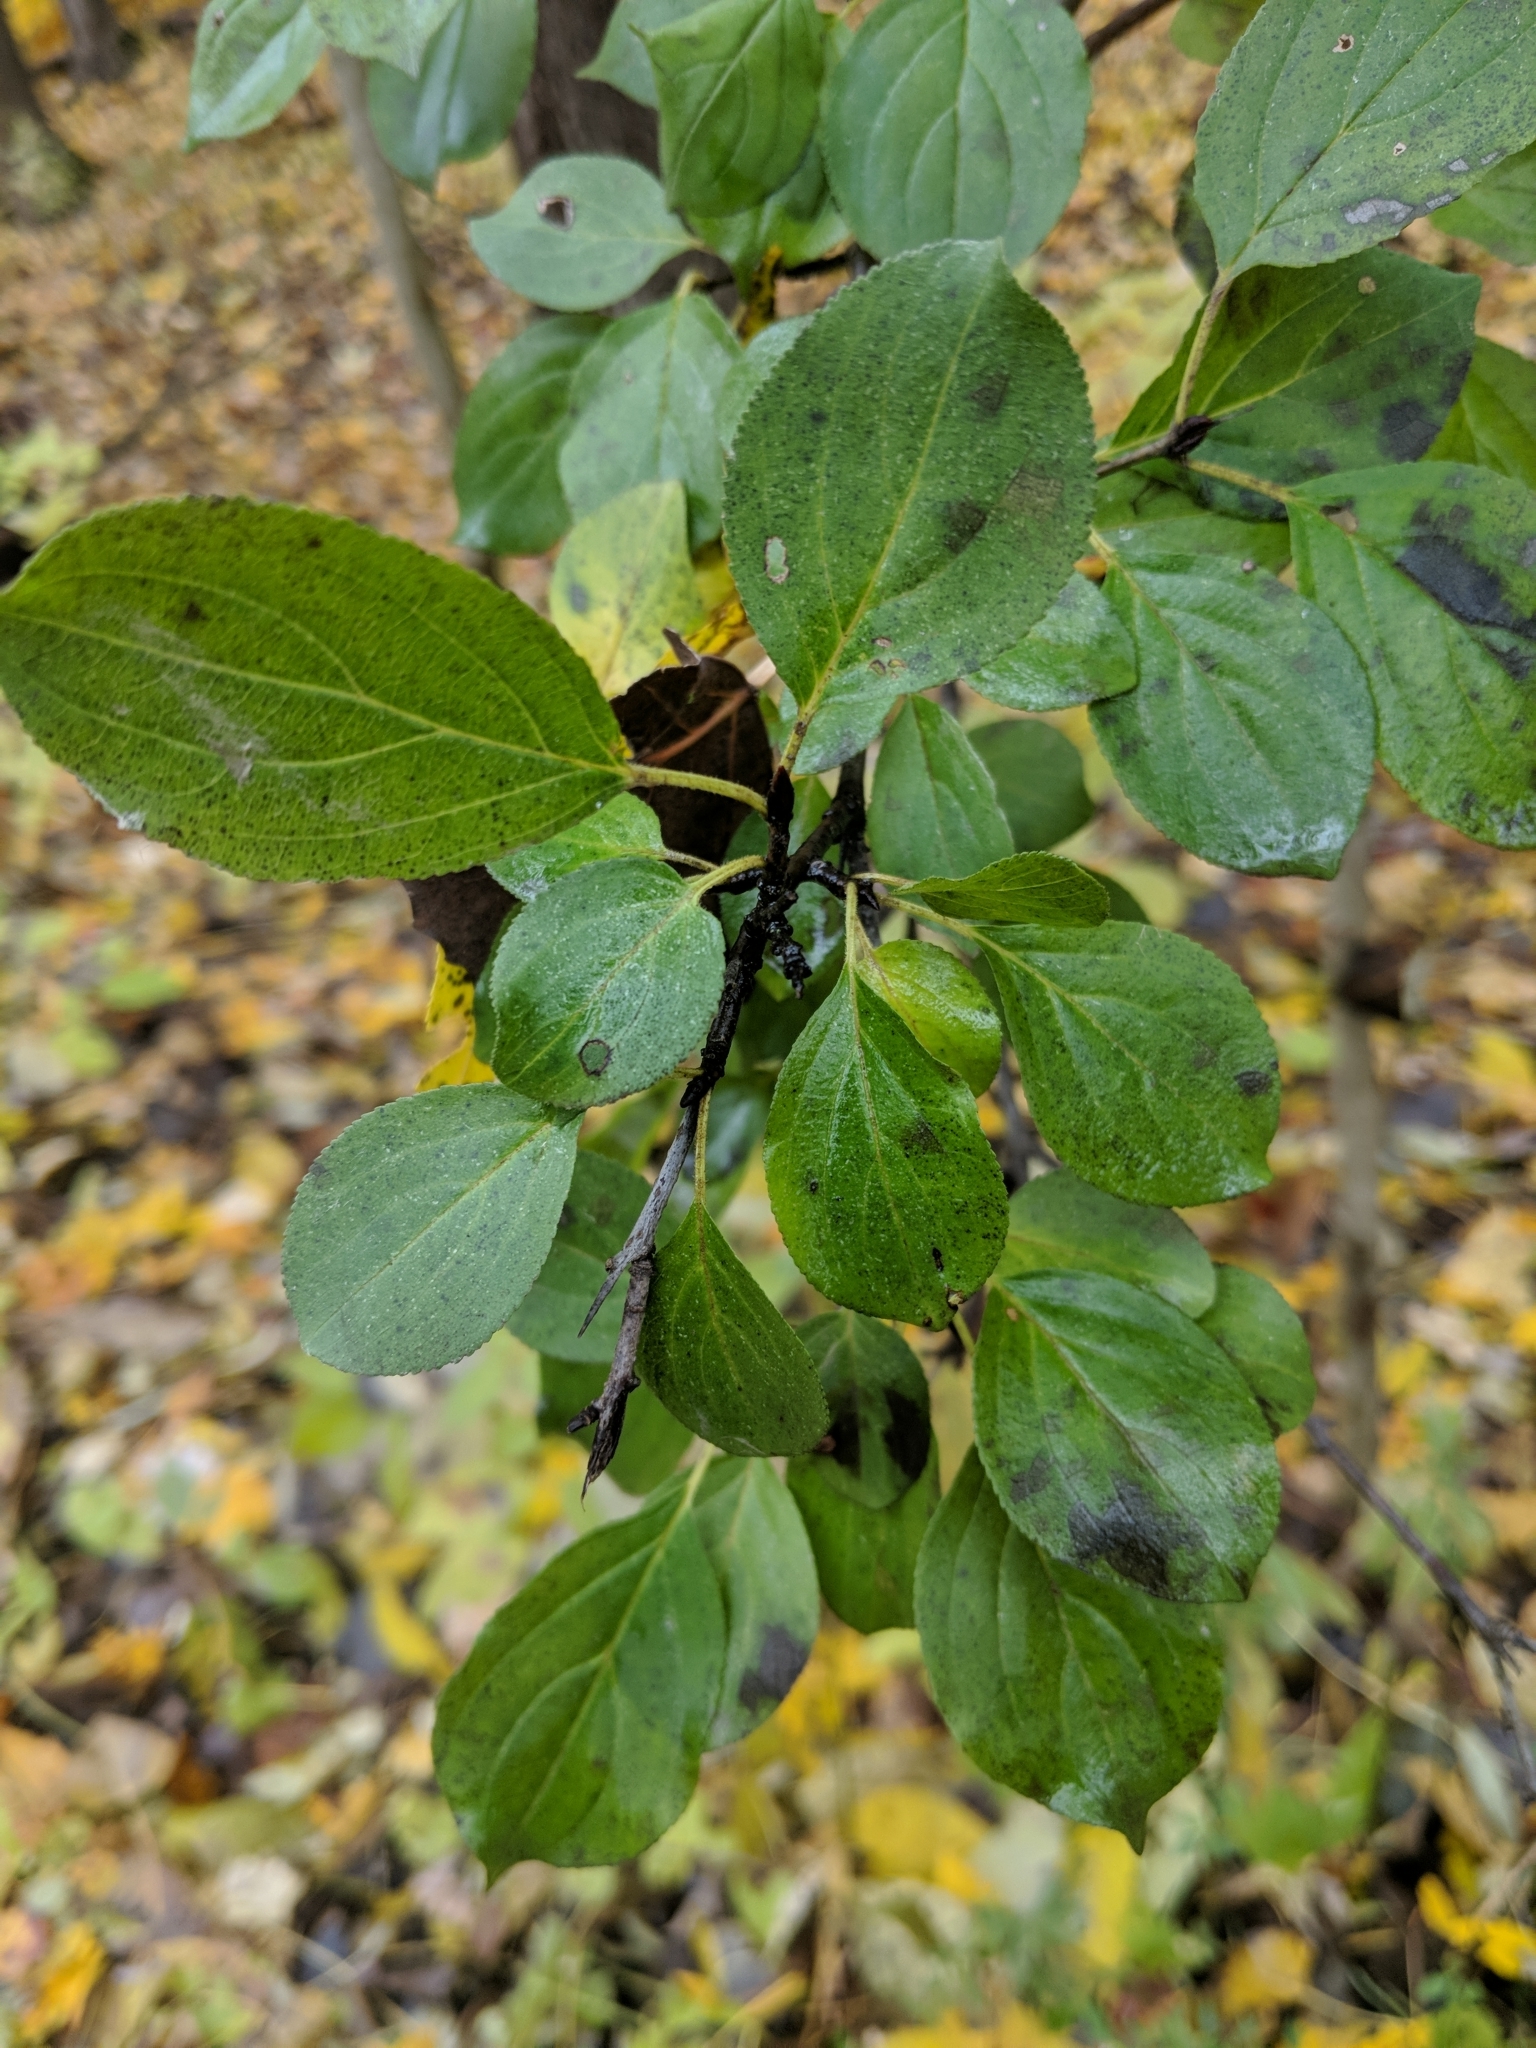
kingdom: Plantae
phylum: Tracheophyta
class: Magnoliopsida
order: Rosales
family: Rhamnaceae
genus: Rhamnus
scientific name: Rhamnus cathartica
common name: Common buckthorn
